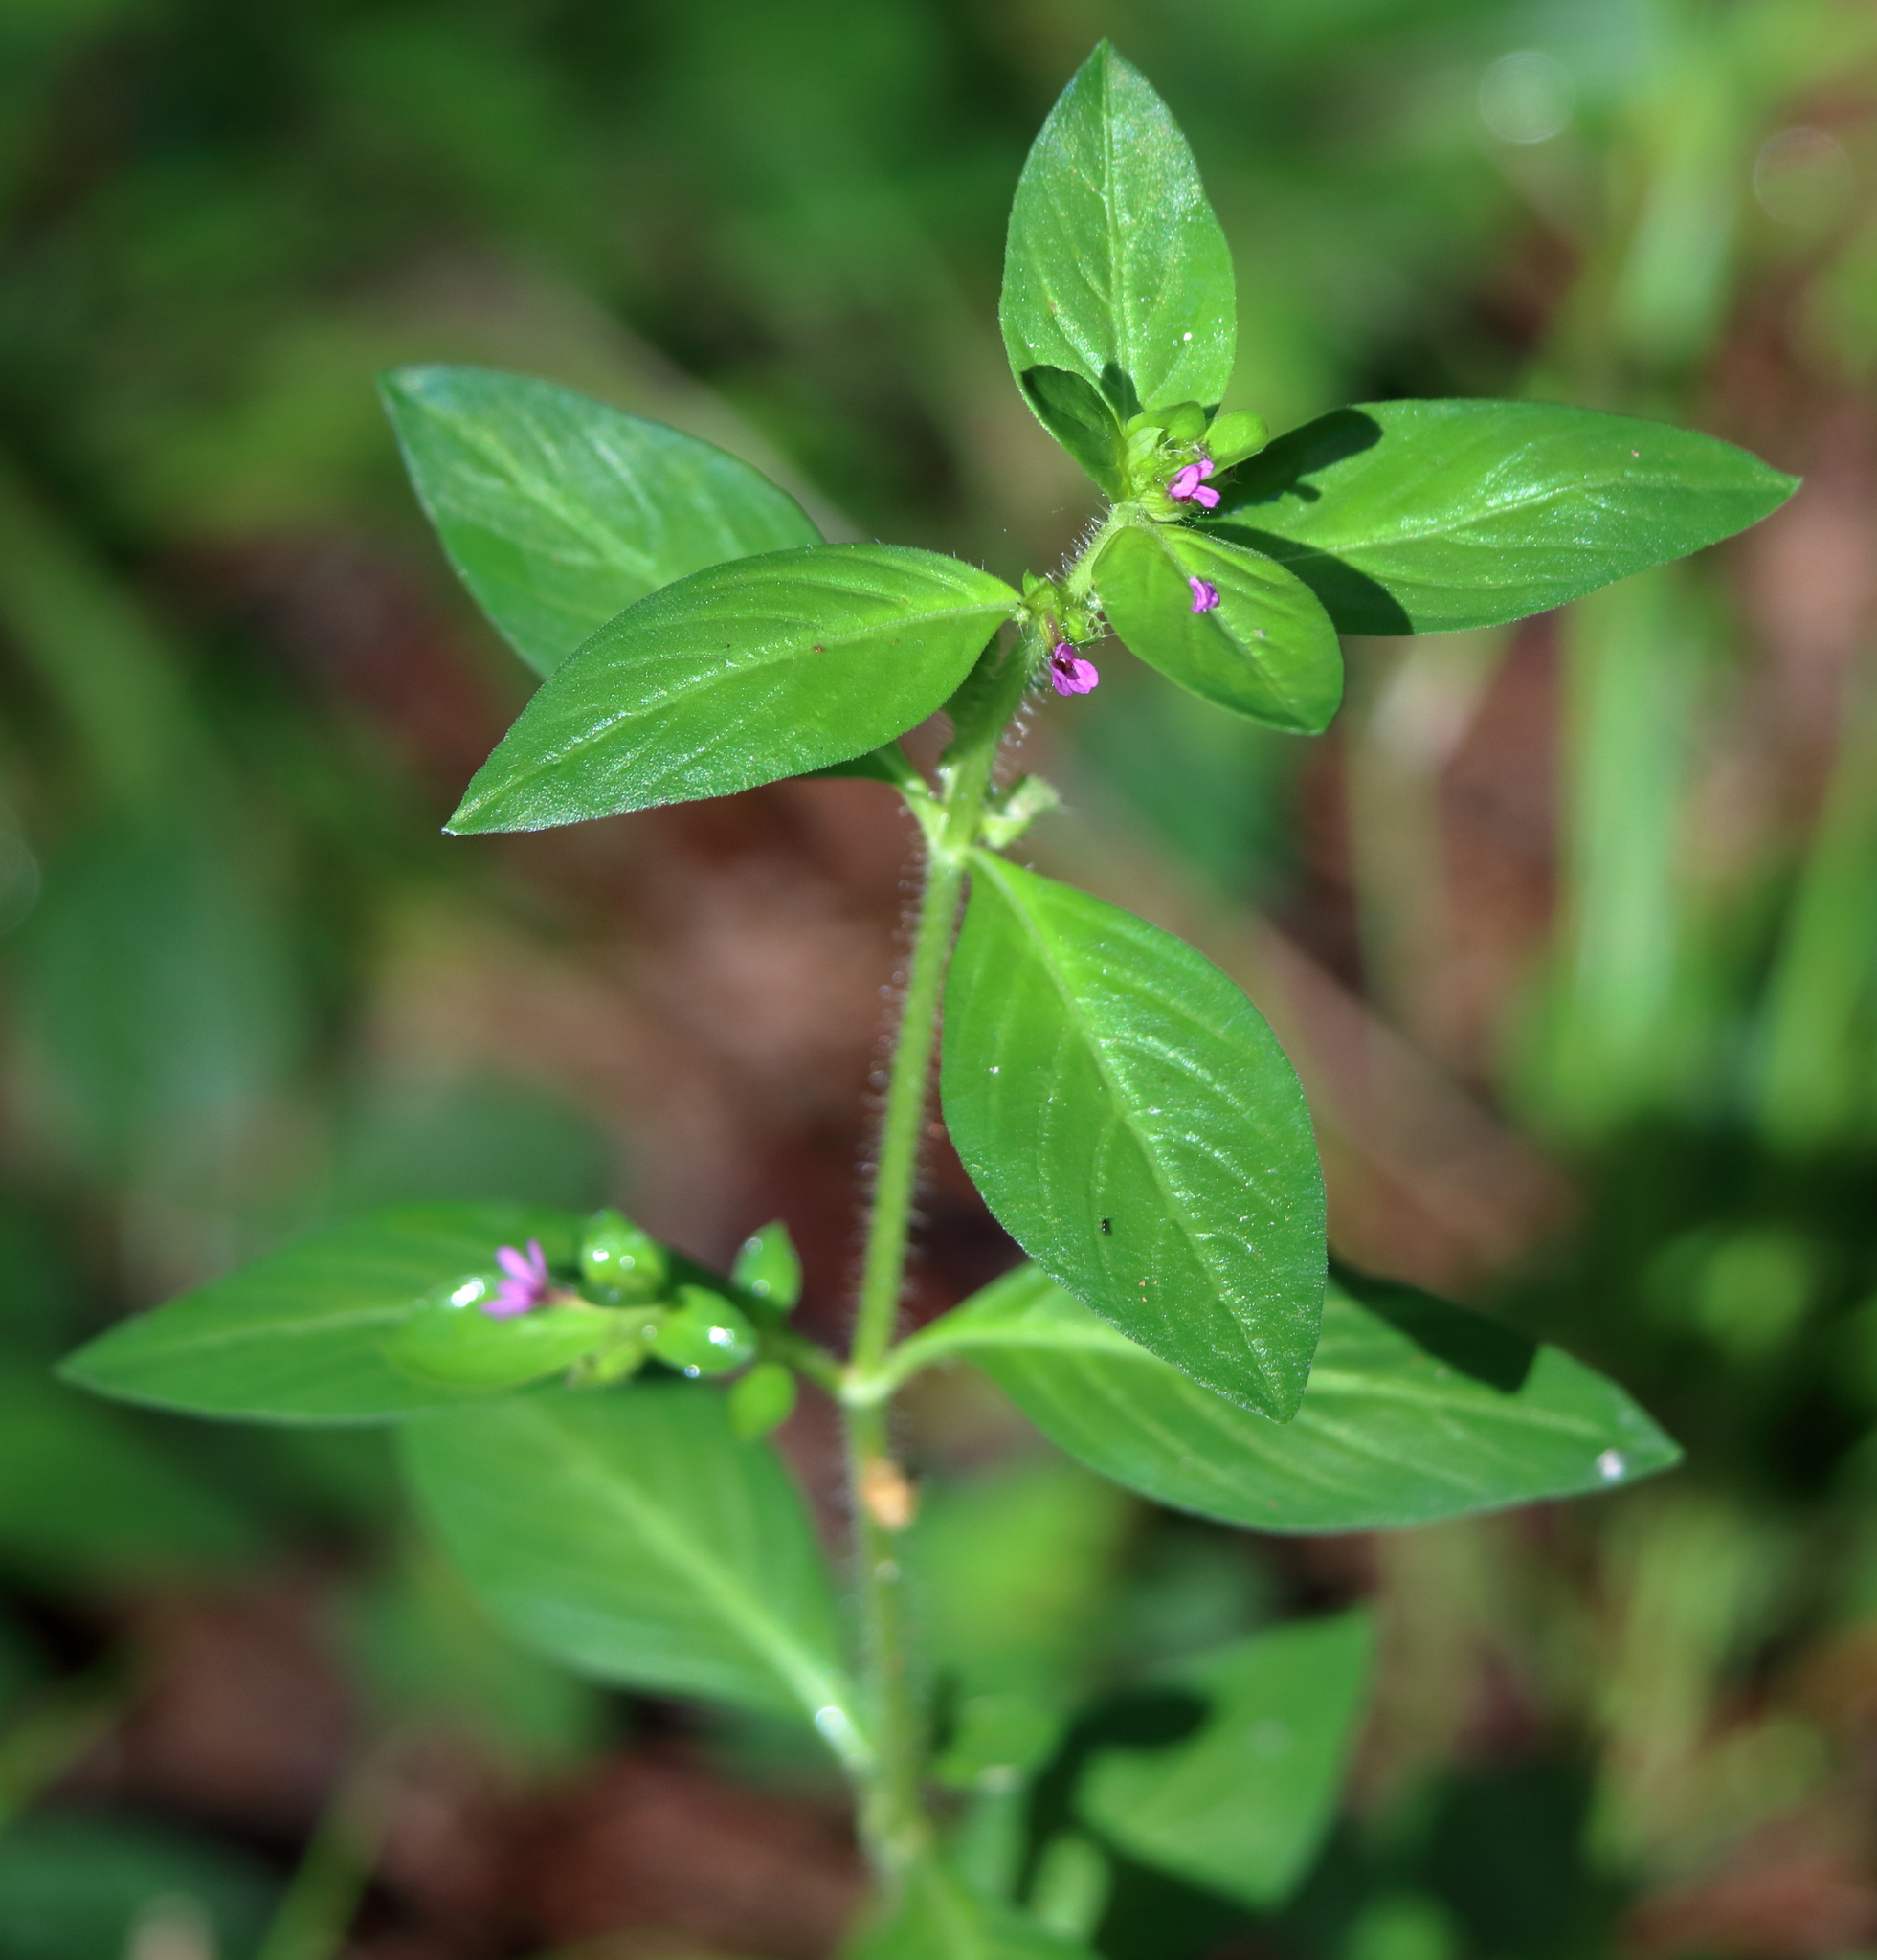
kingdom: Plantae
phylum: Tracheophyta
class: Magnoliopsida
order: Myrtales
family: Lythraceae
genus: Cuphea
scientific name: Cuphea carthagenensis
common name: Colombian waxweed
